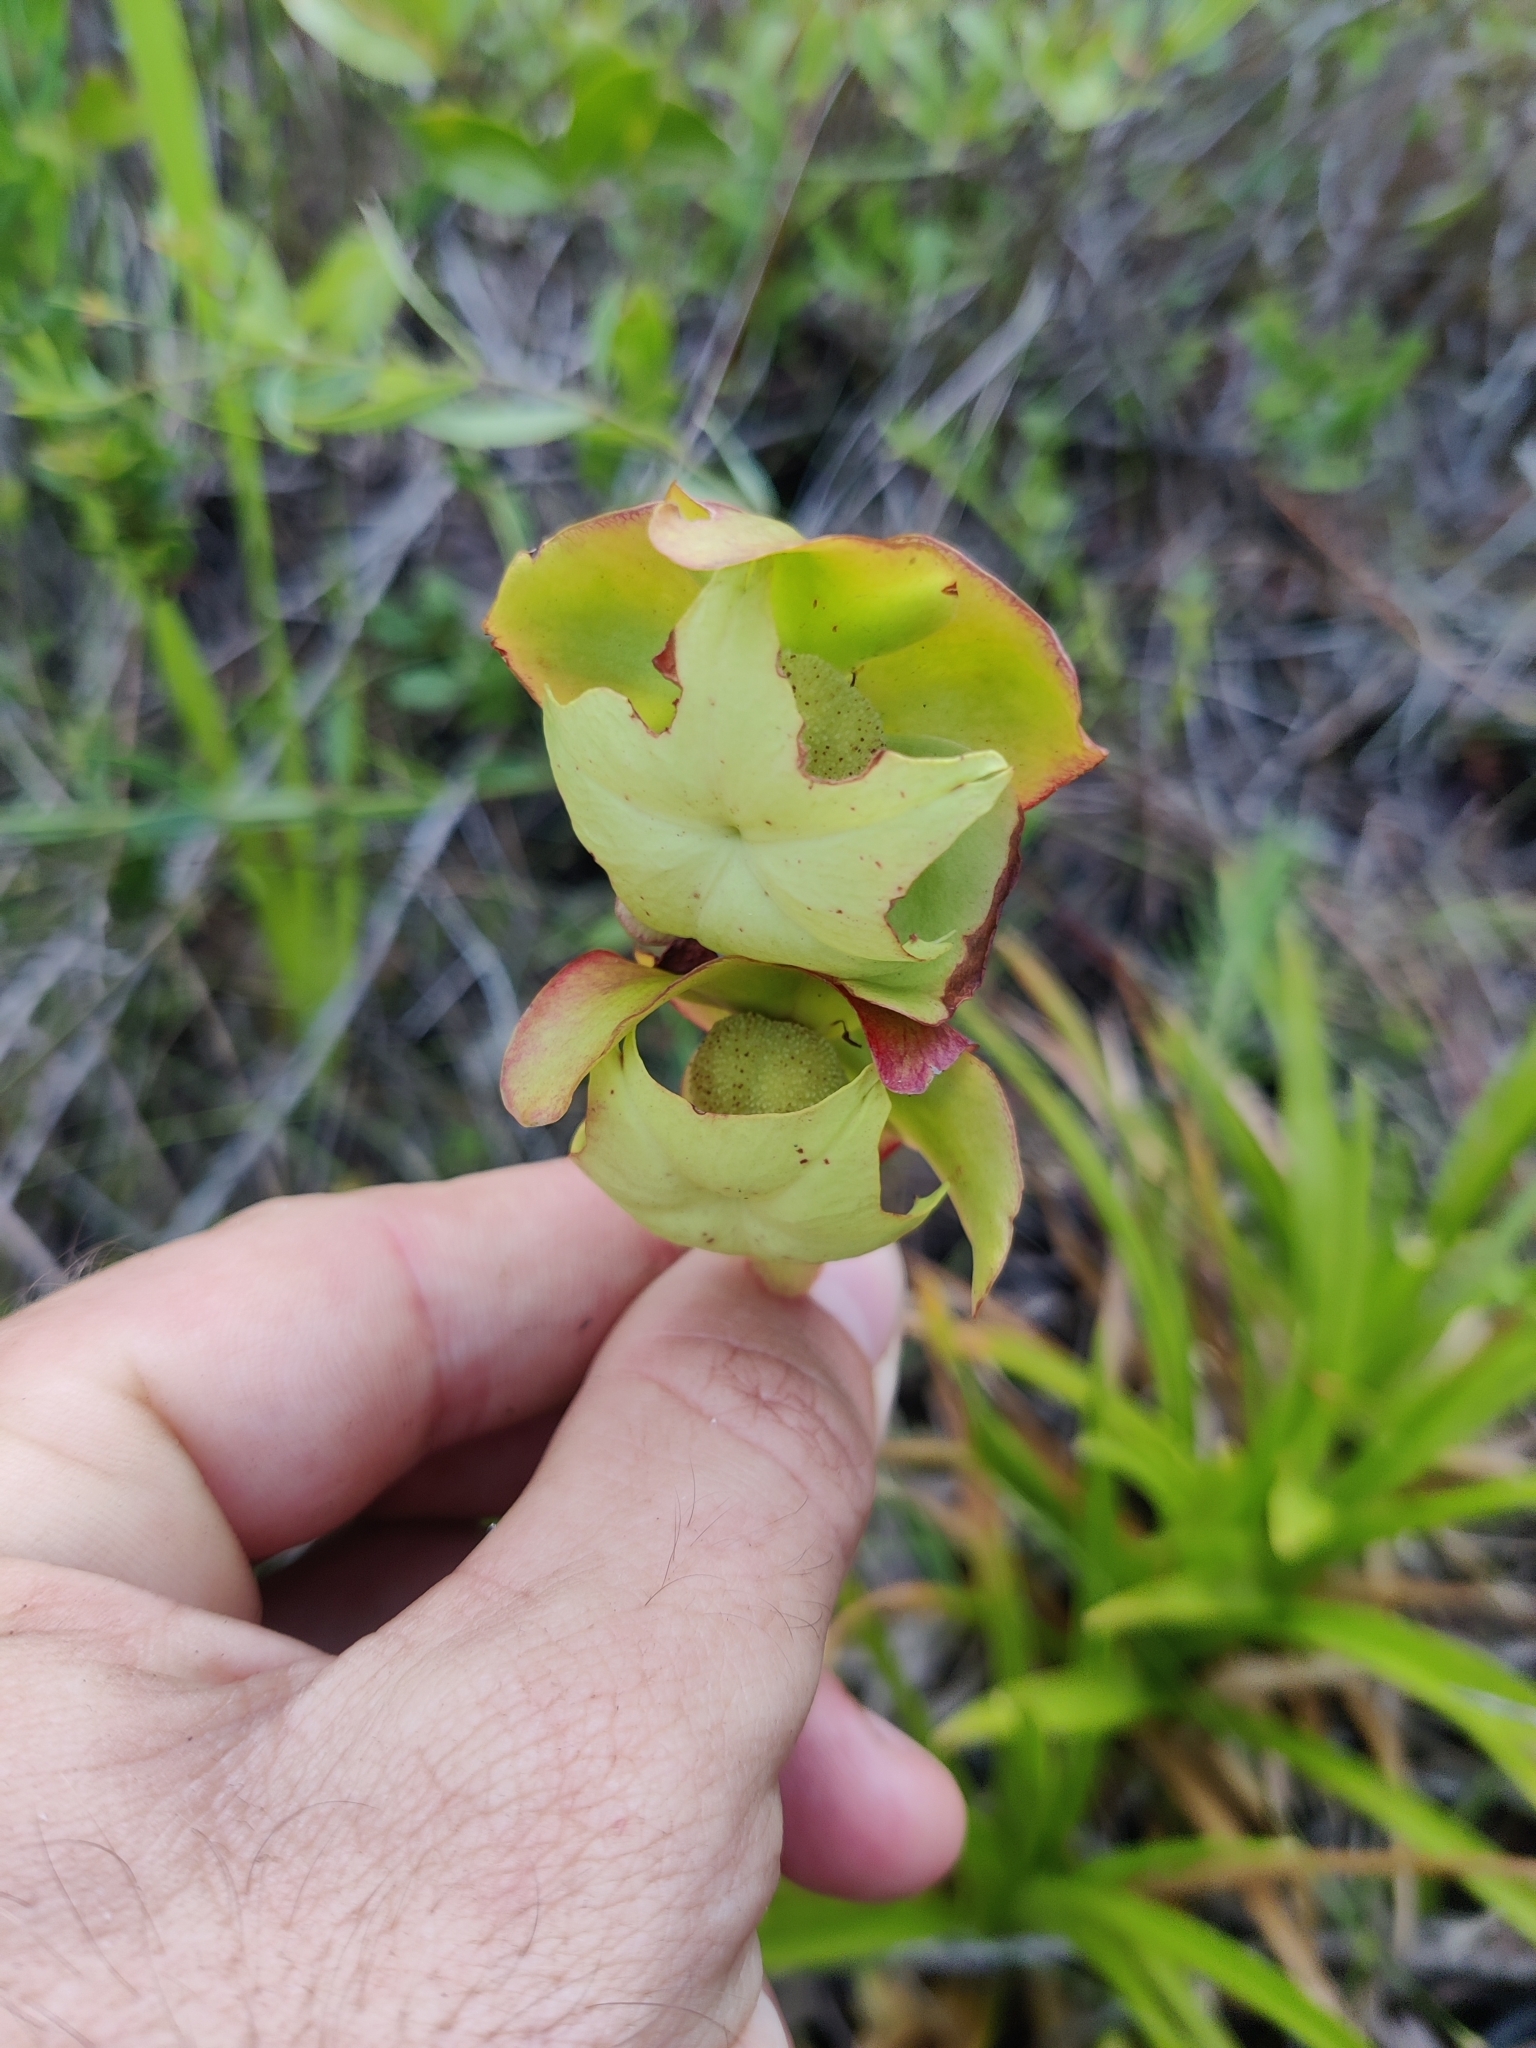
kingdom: Plantae
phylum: Tracheophyta
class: Magnoliopsida
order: Ericales
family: Sarraceniaceae
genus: Sarracenia
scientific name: Sarracenia psittacina
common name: Parrot pitcherplant
